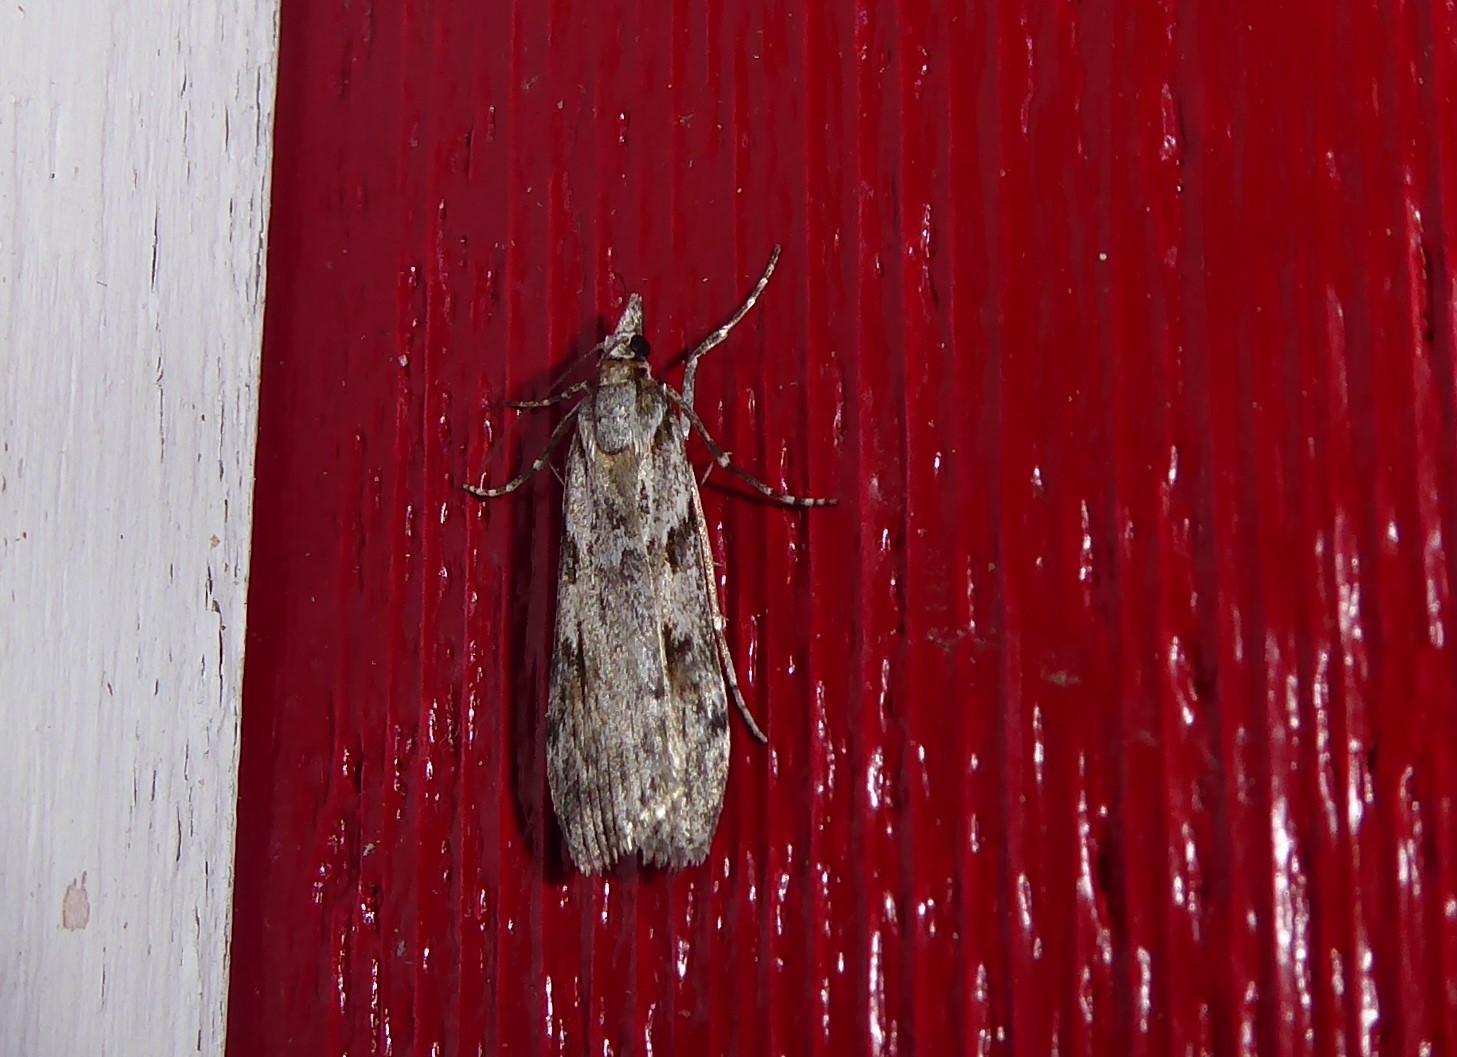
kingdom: Animalia
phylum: Arthropoda
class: Insecta
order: Lepidoptera
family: Crambidae
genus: Scoparia
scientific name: Scoparia halopis
